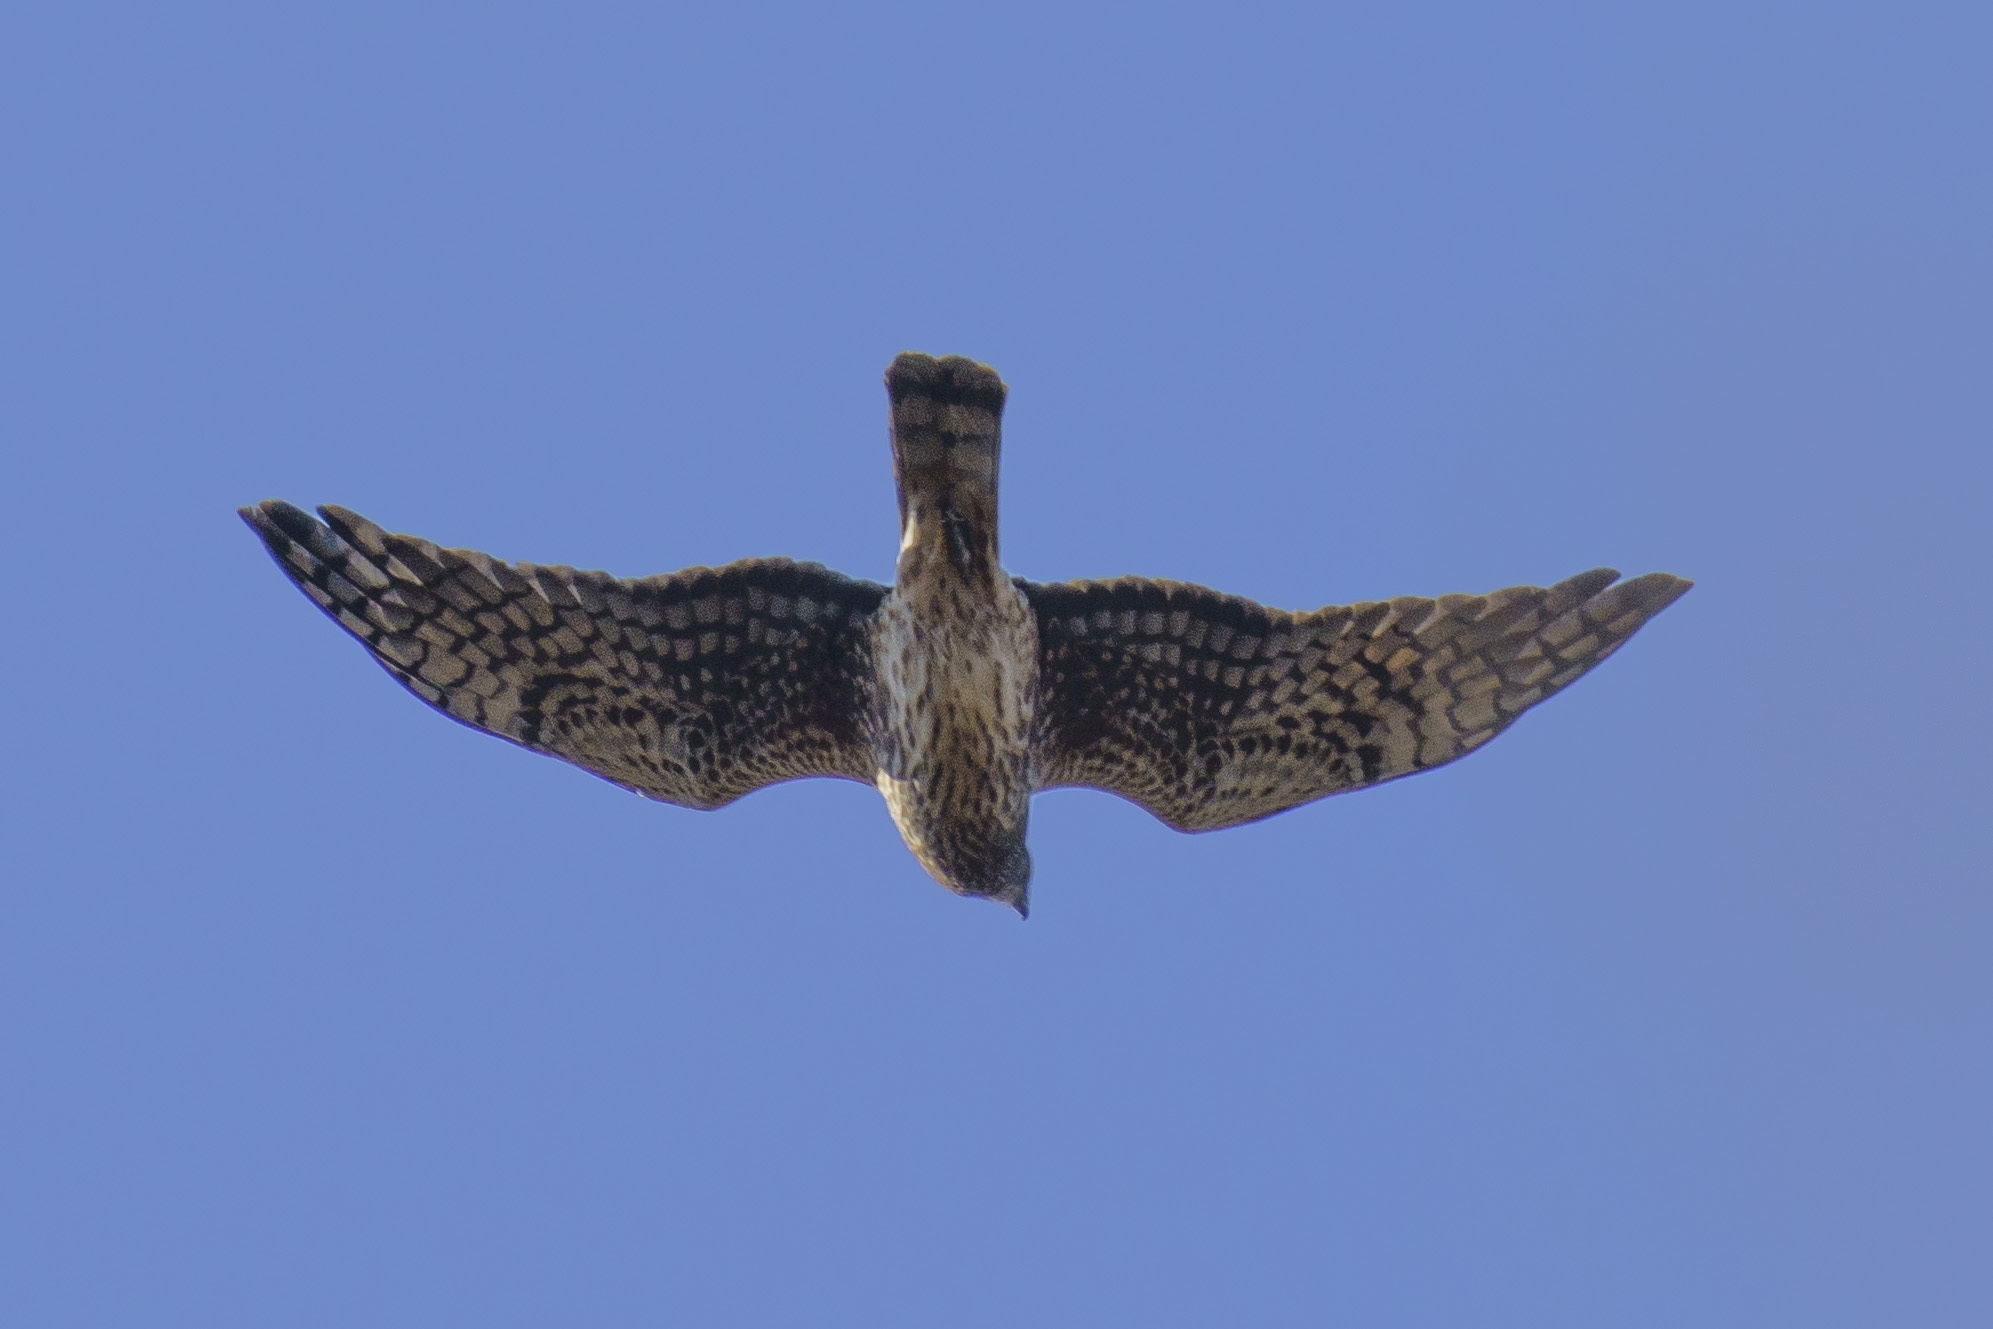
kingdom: Animalia
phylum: Chordata
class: Aves
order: Accipitriformes
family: Accipitridae
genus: Circus
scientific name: Circus cyaneus
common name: Hen harrier
